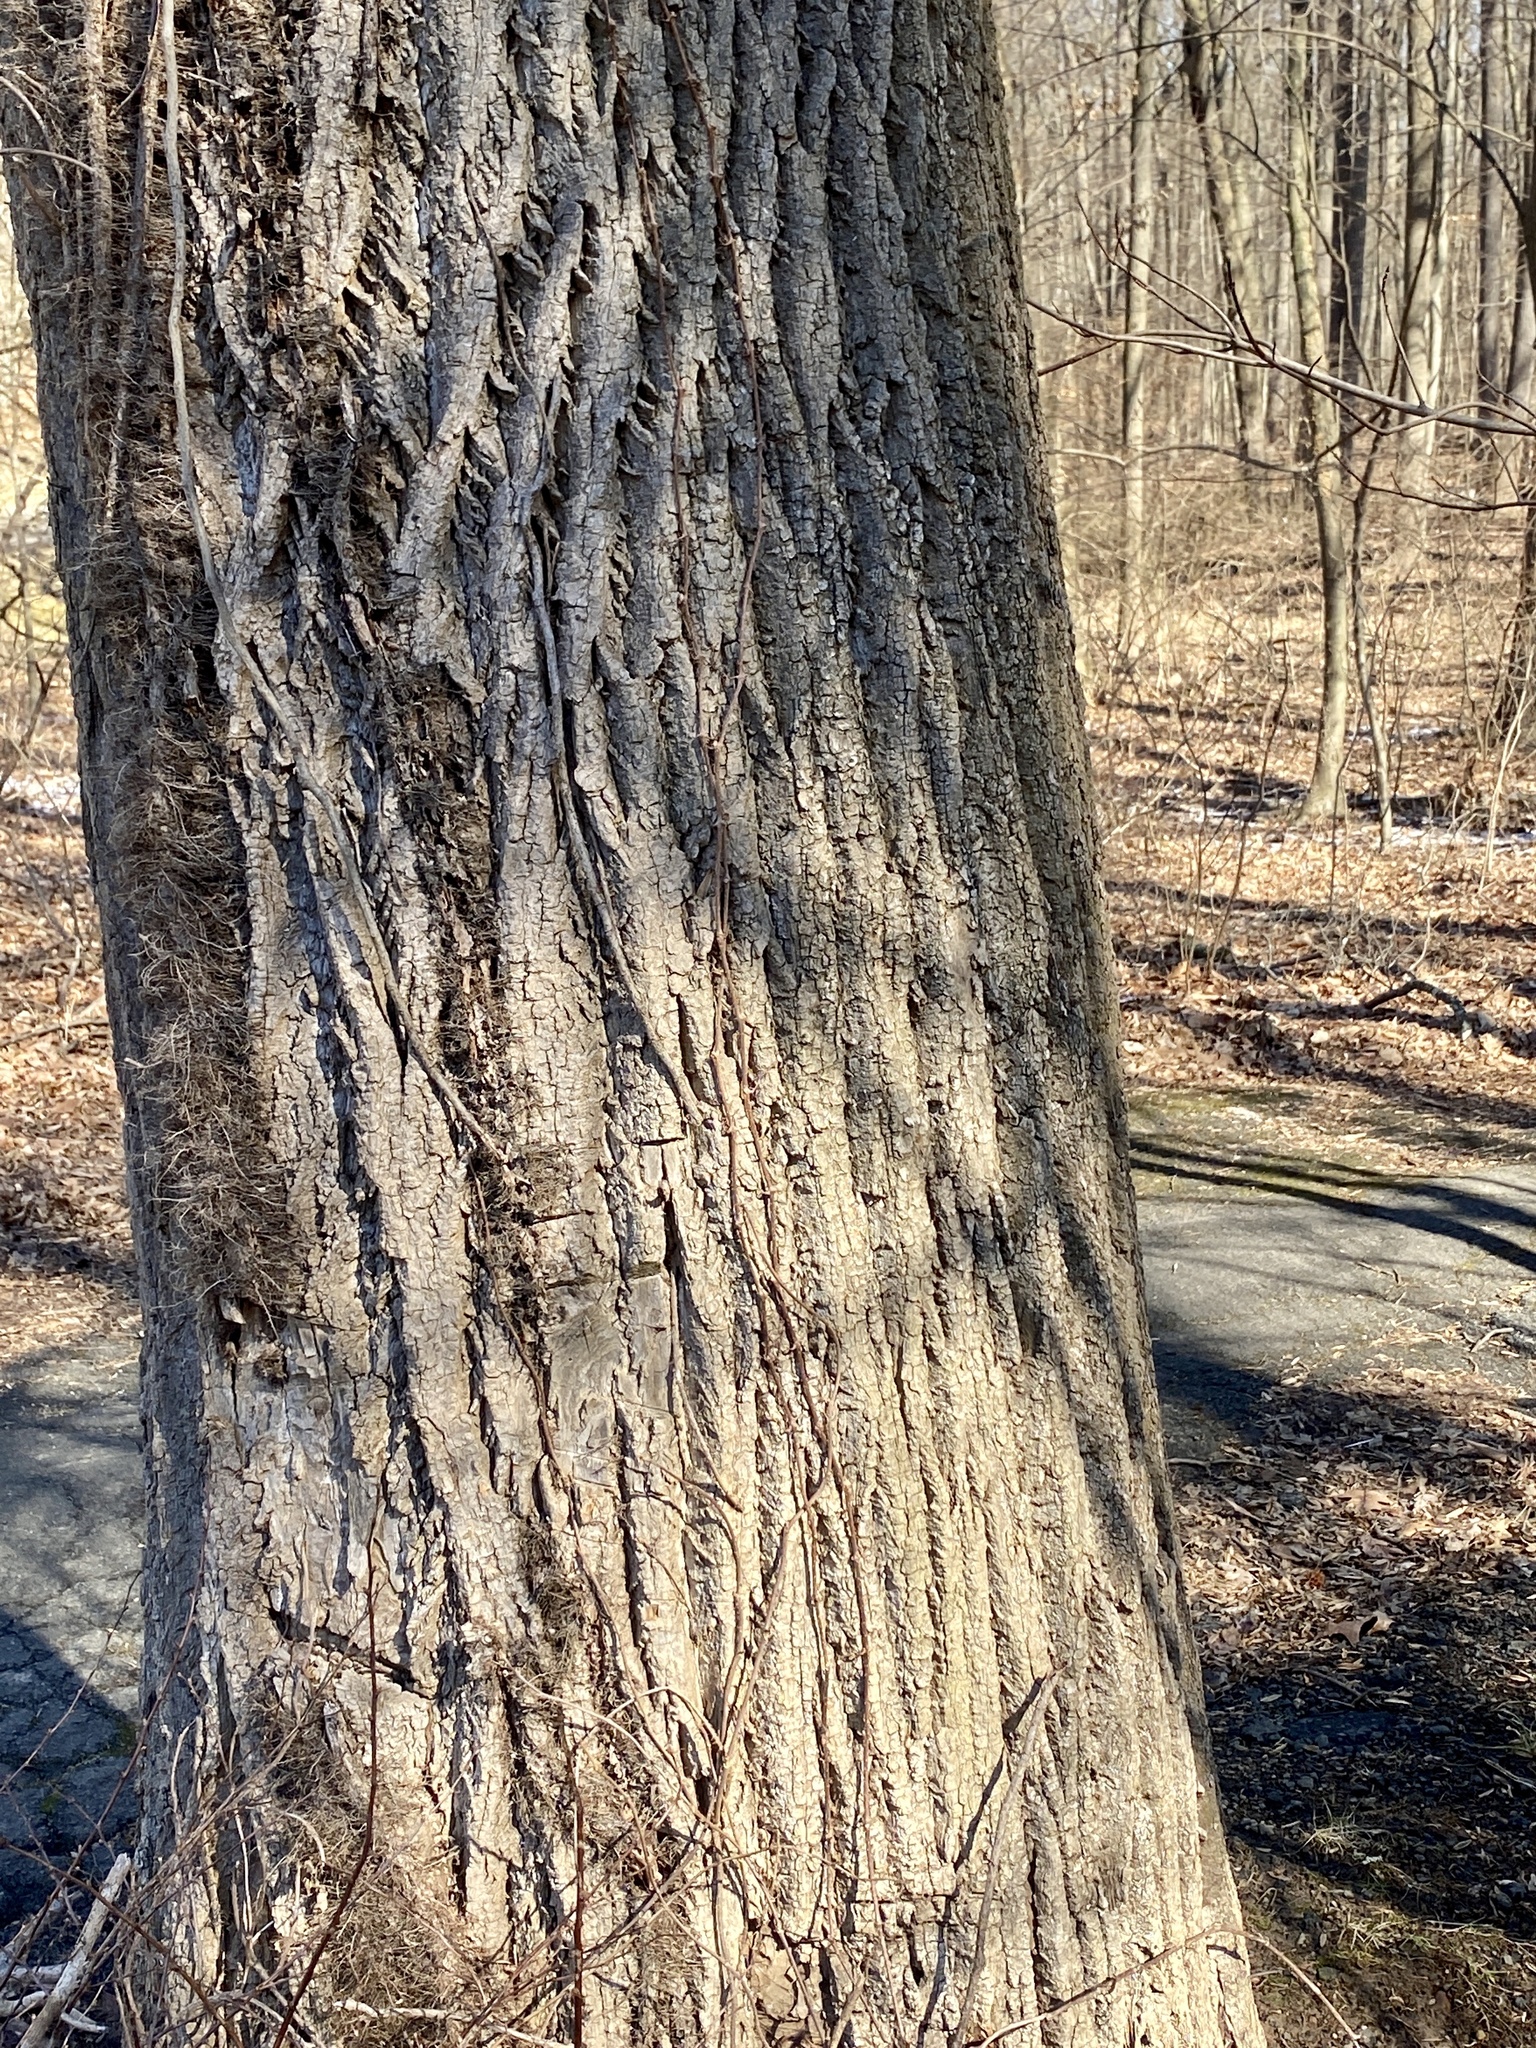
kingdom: Plantae
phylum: Tracheophyta
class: Magnoliopsida
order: Magnoliales
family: Magnoliaceae
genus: Liriodendron
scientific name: Liriodendron tulipifera
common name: Tulip tree
